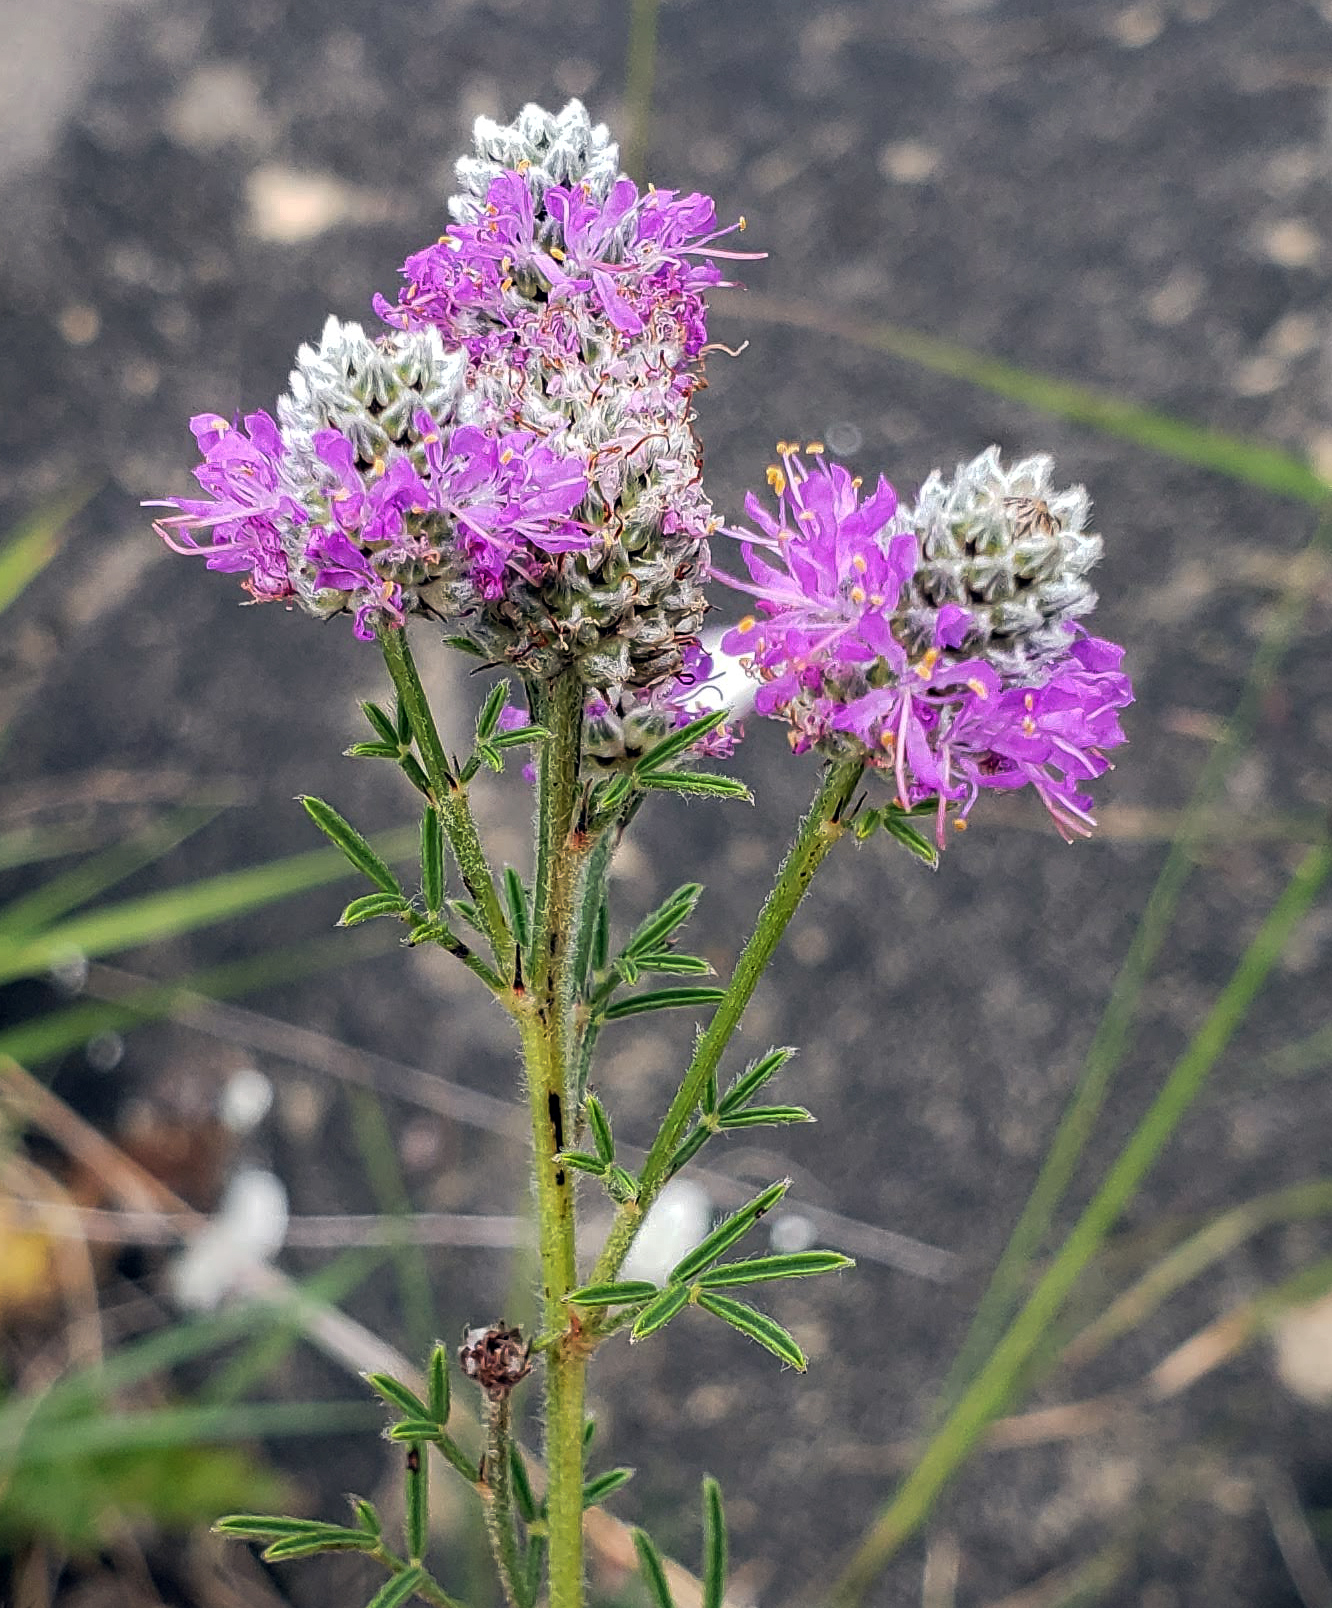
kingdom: Plantae
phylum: Tracheophyta
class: Magnoliopsida
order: Fabales
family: Fabaceae
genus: Dalea
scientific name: Dalea purpurea
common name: Purple prairie-clover
